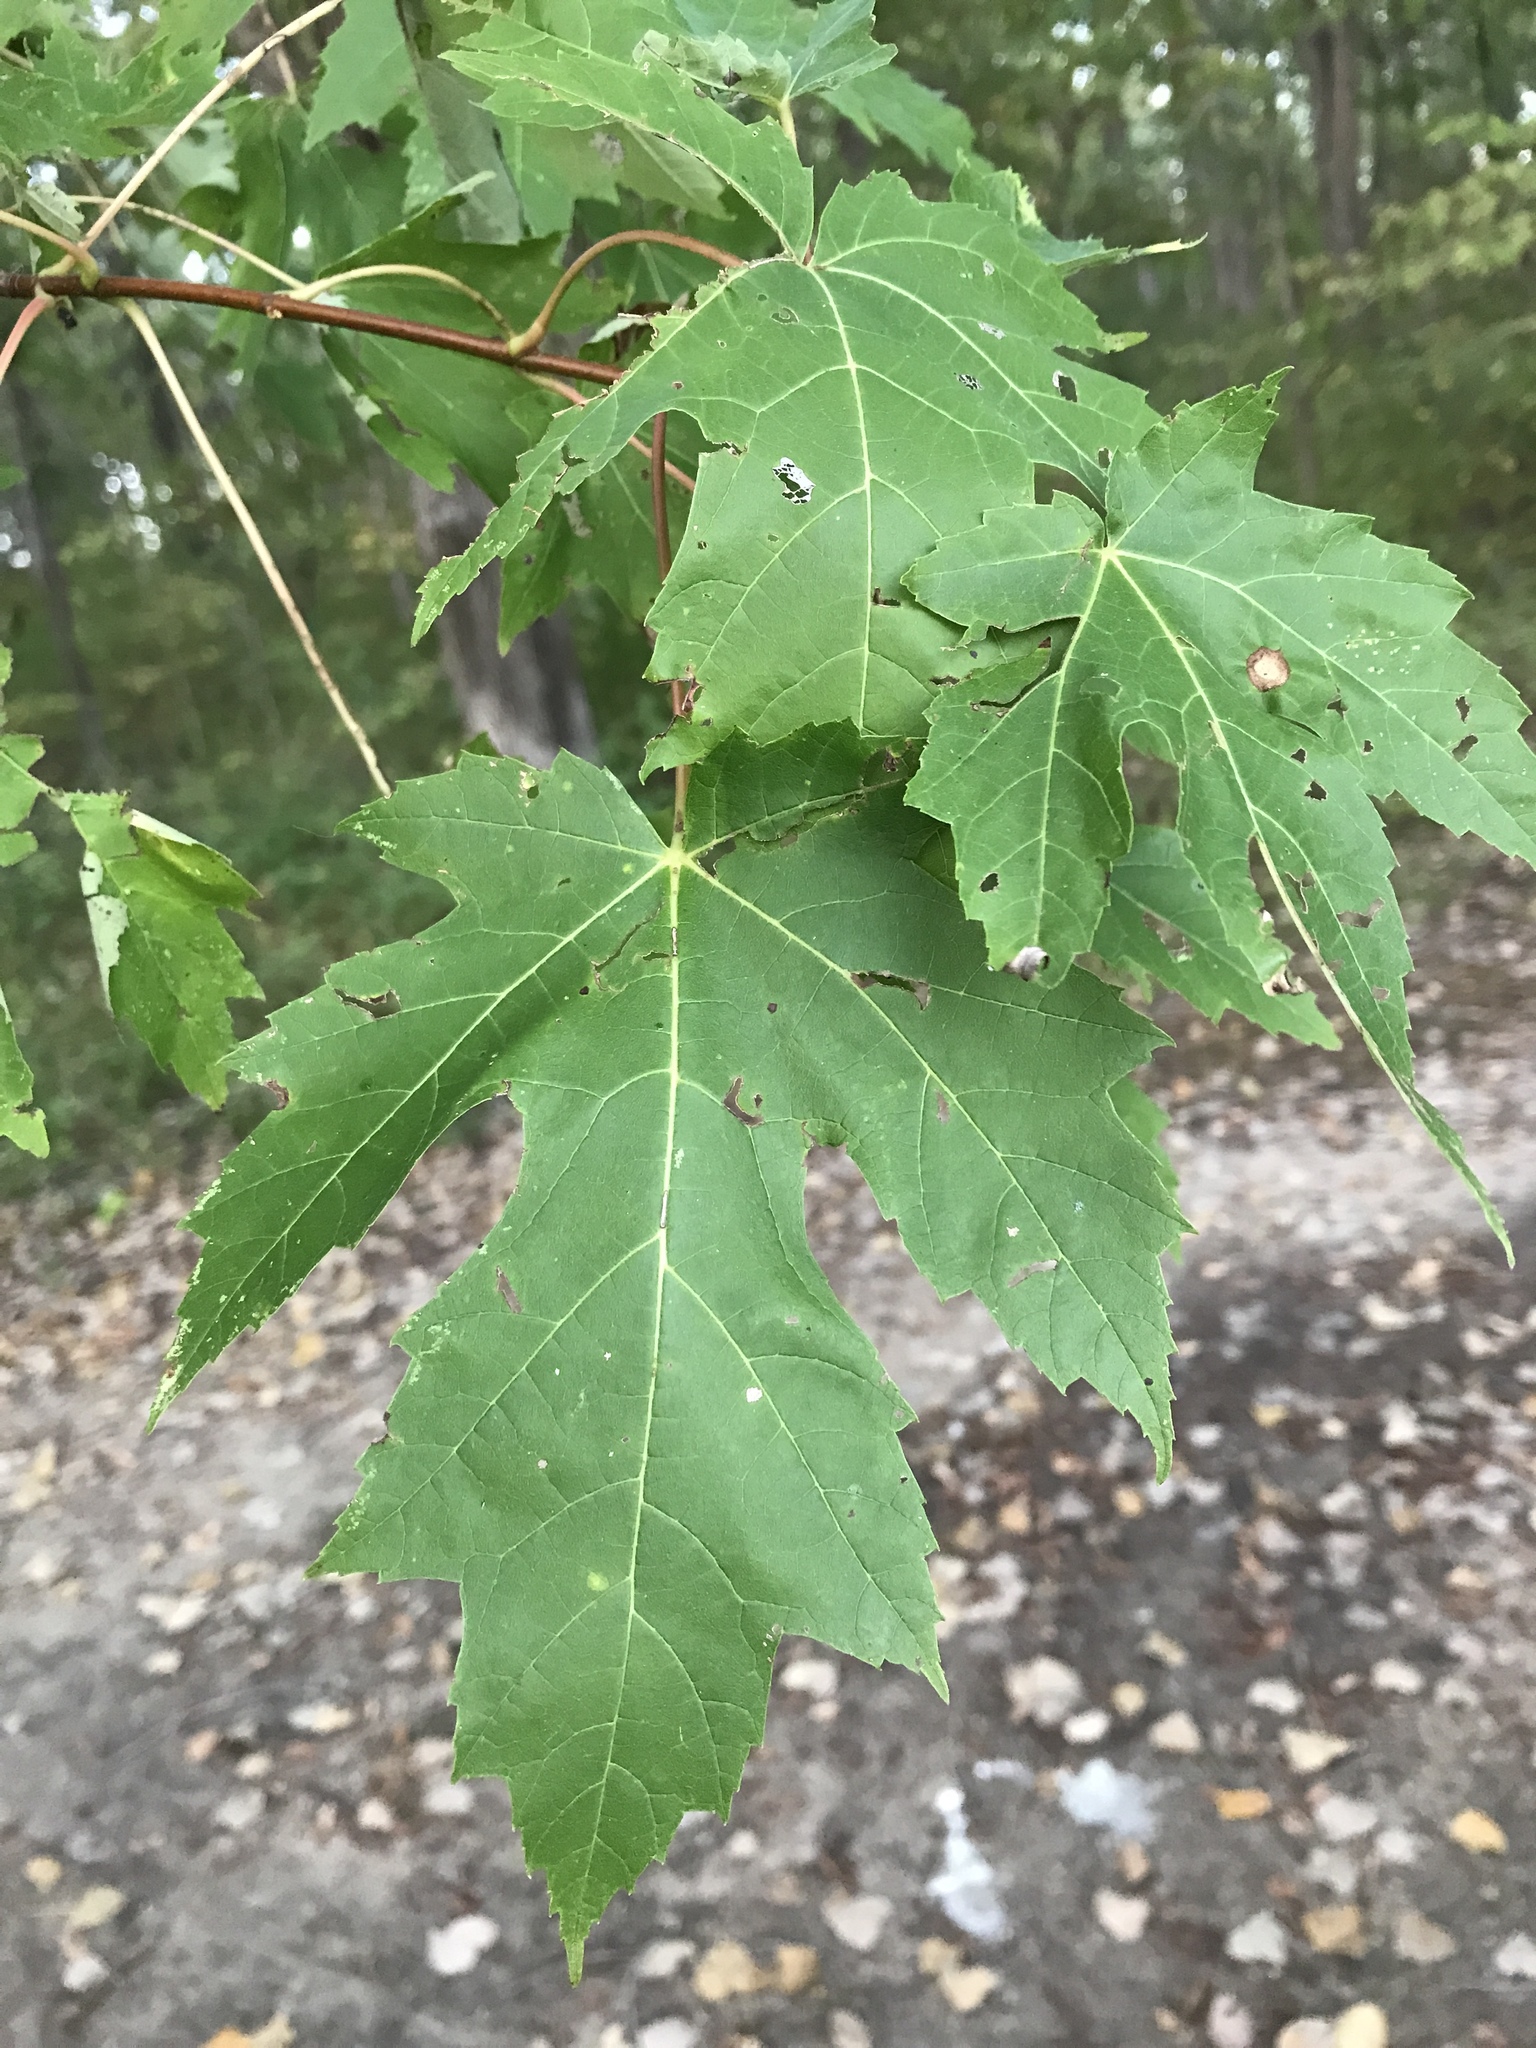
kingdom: Plantae
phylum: Tracheophyta
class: Magnoliopsida
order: Sapindales
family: Sapindaceae
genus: Acer
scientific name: Acer saccharinum
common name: Silver maple
